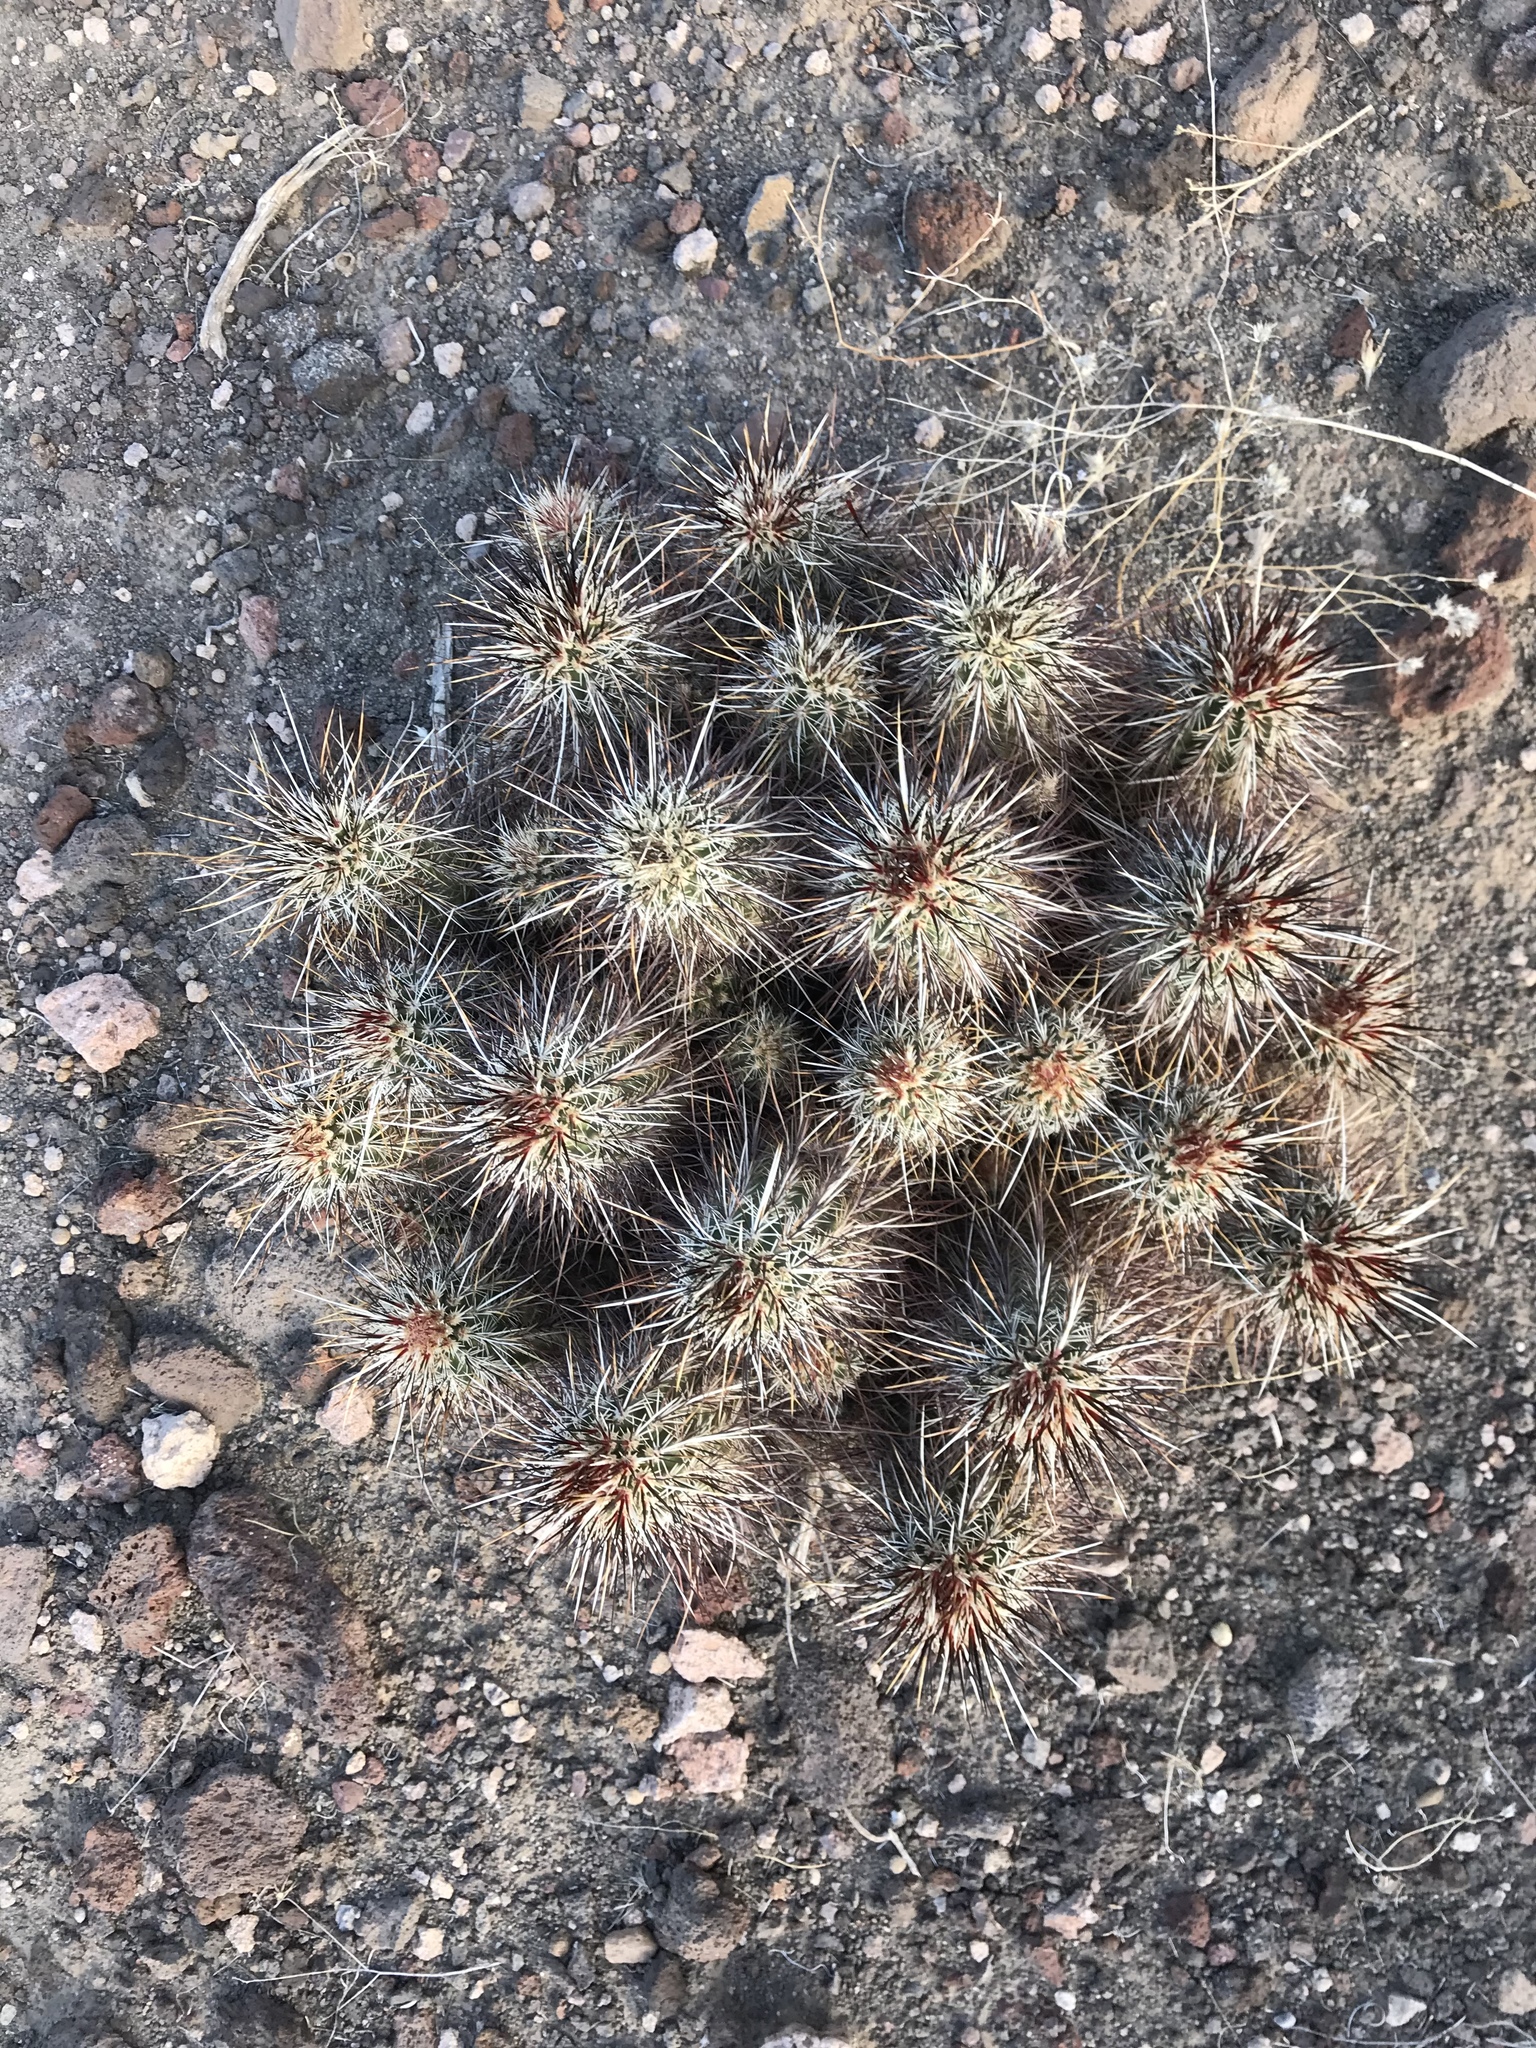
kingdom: Plantae
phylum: Tracheophyta
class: Magnoliopsida
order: Caryophyllales
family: Cactaceae
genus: Echinocereus
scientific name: Echinocereus engelmannii
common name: Engelmann's hedgehog cactus
